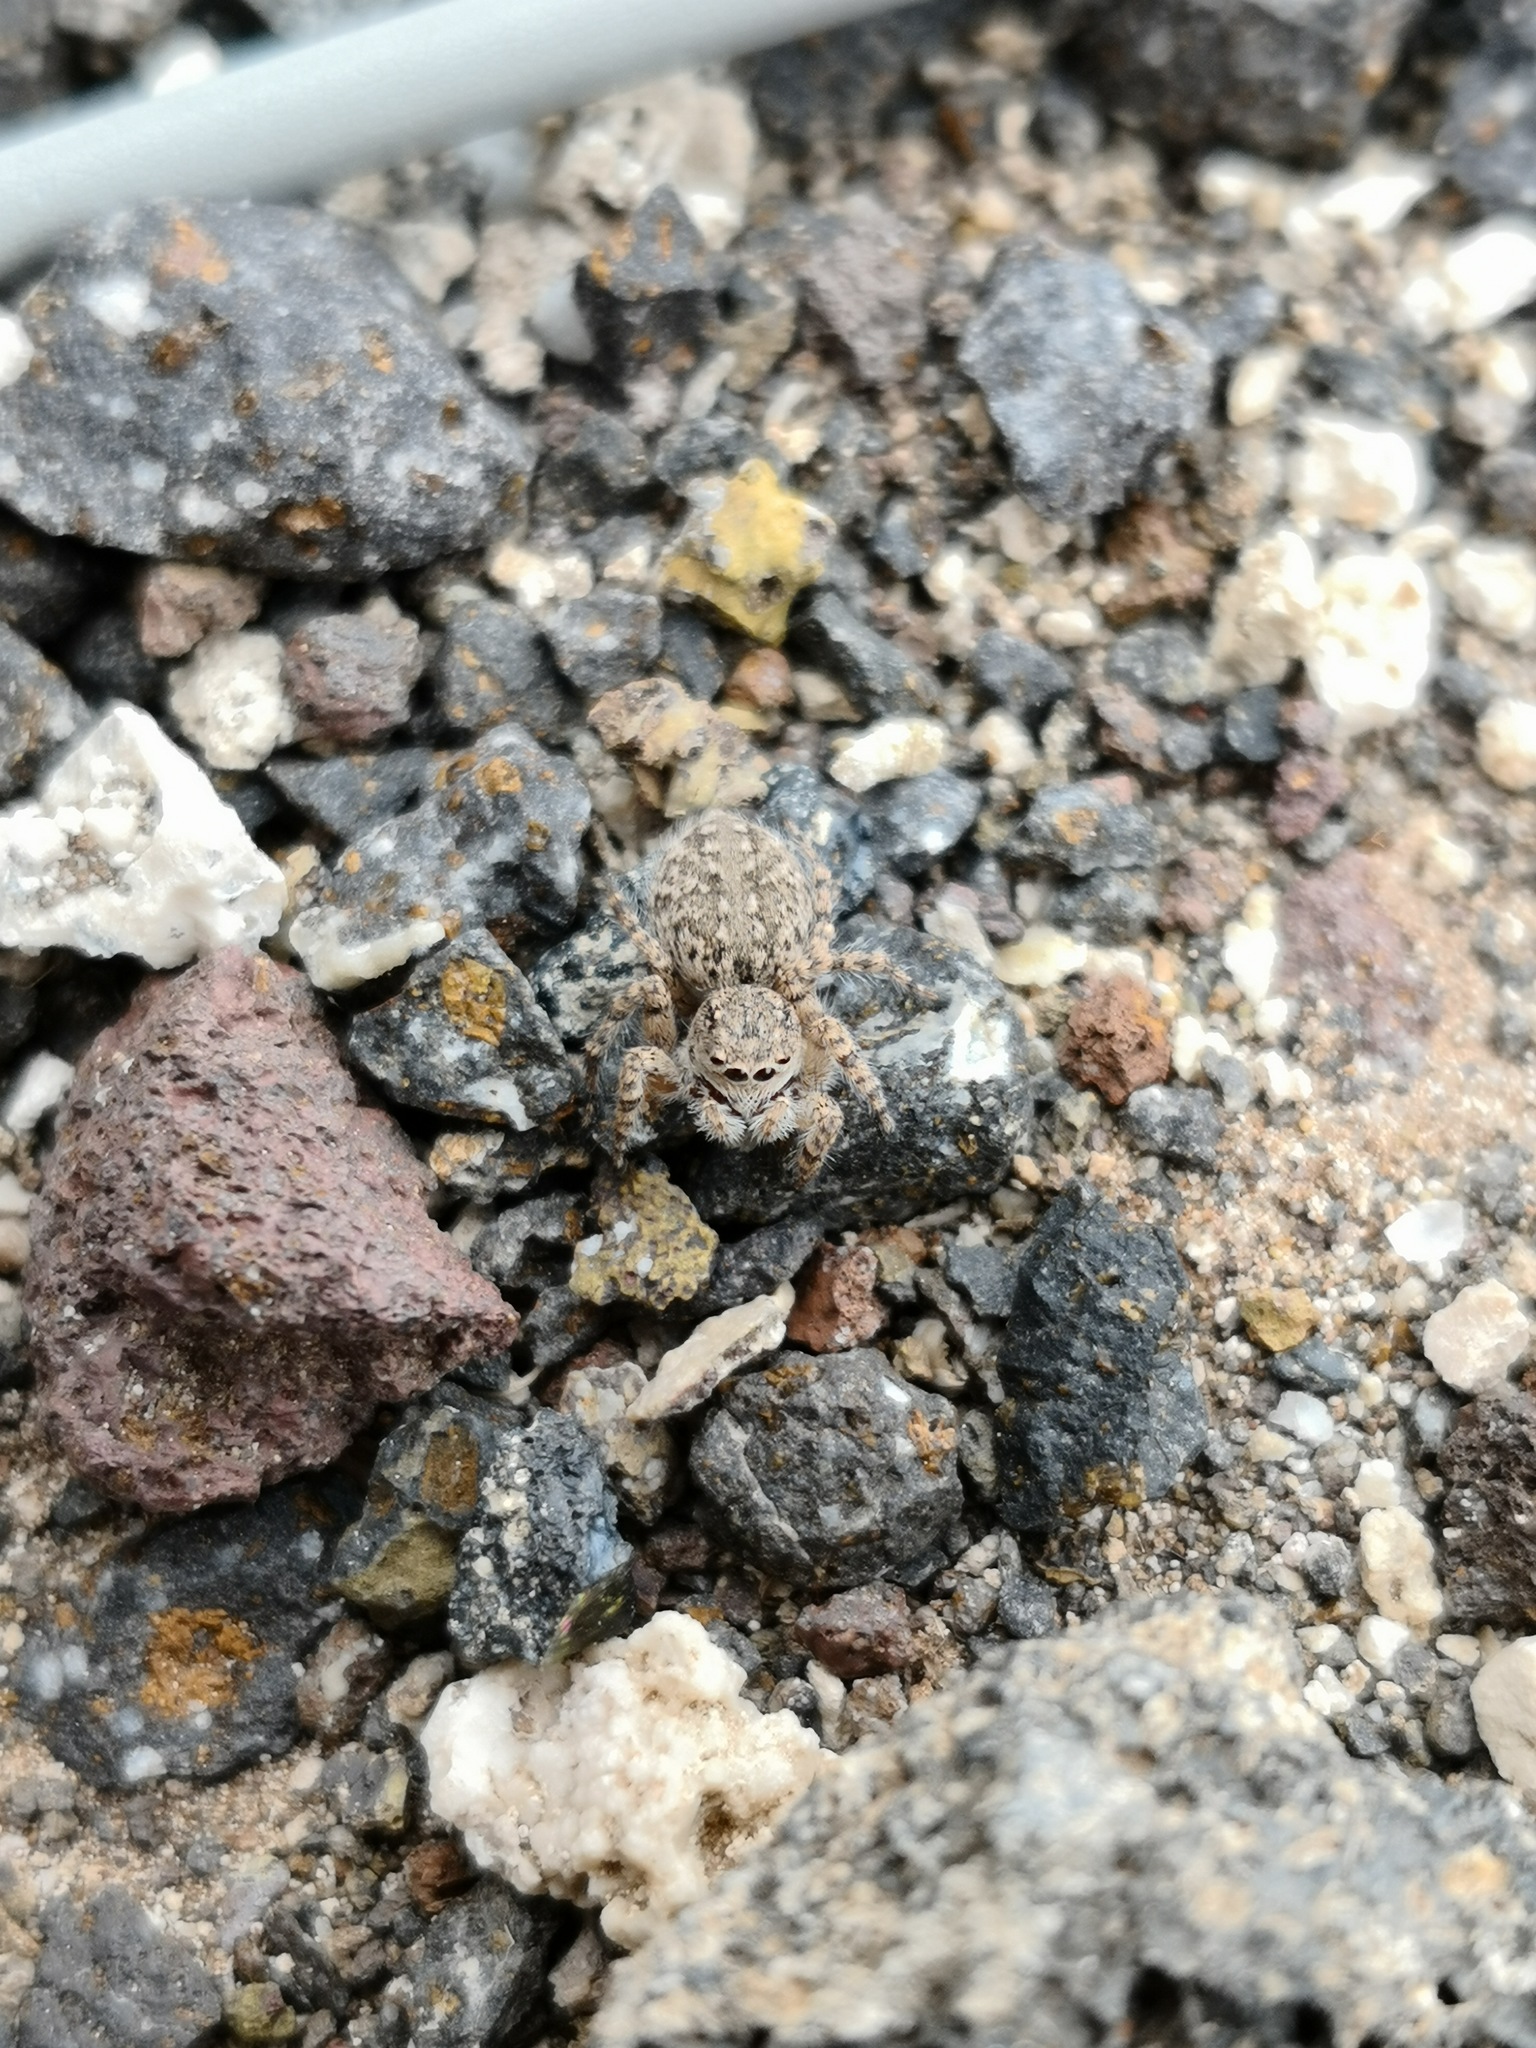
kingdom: Animalia
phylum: Arthropoda
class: Arachnida
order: Araneae
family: Salticidae
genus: Aelurillus
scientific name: Aelurillus lucasi
